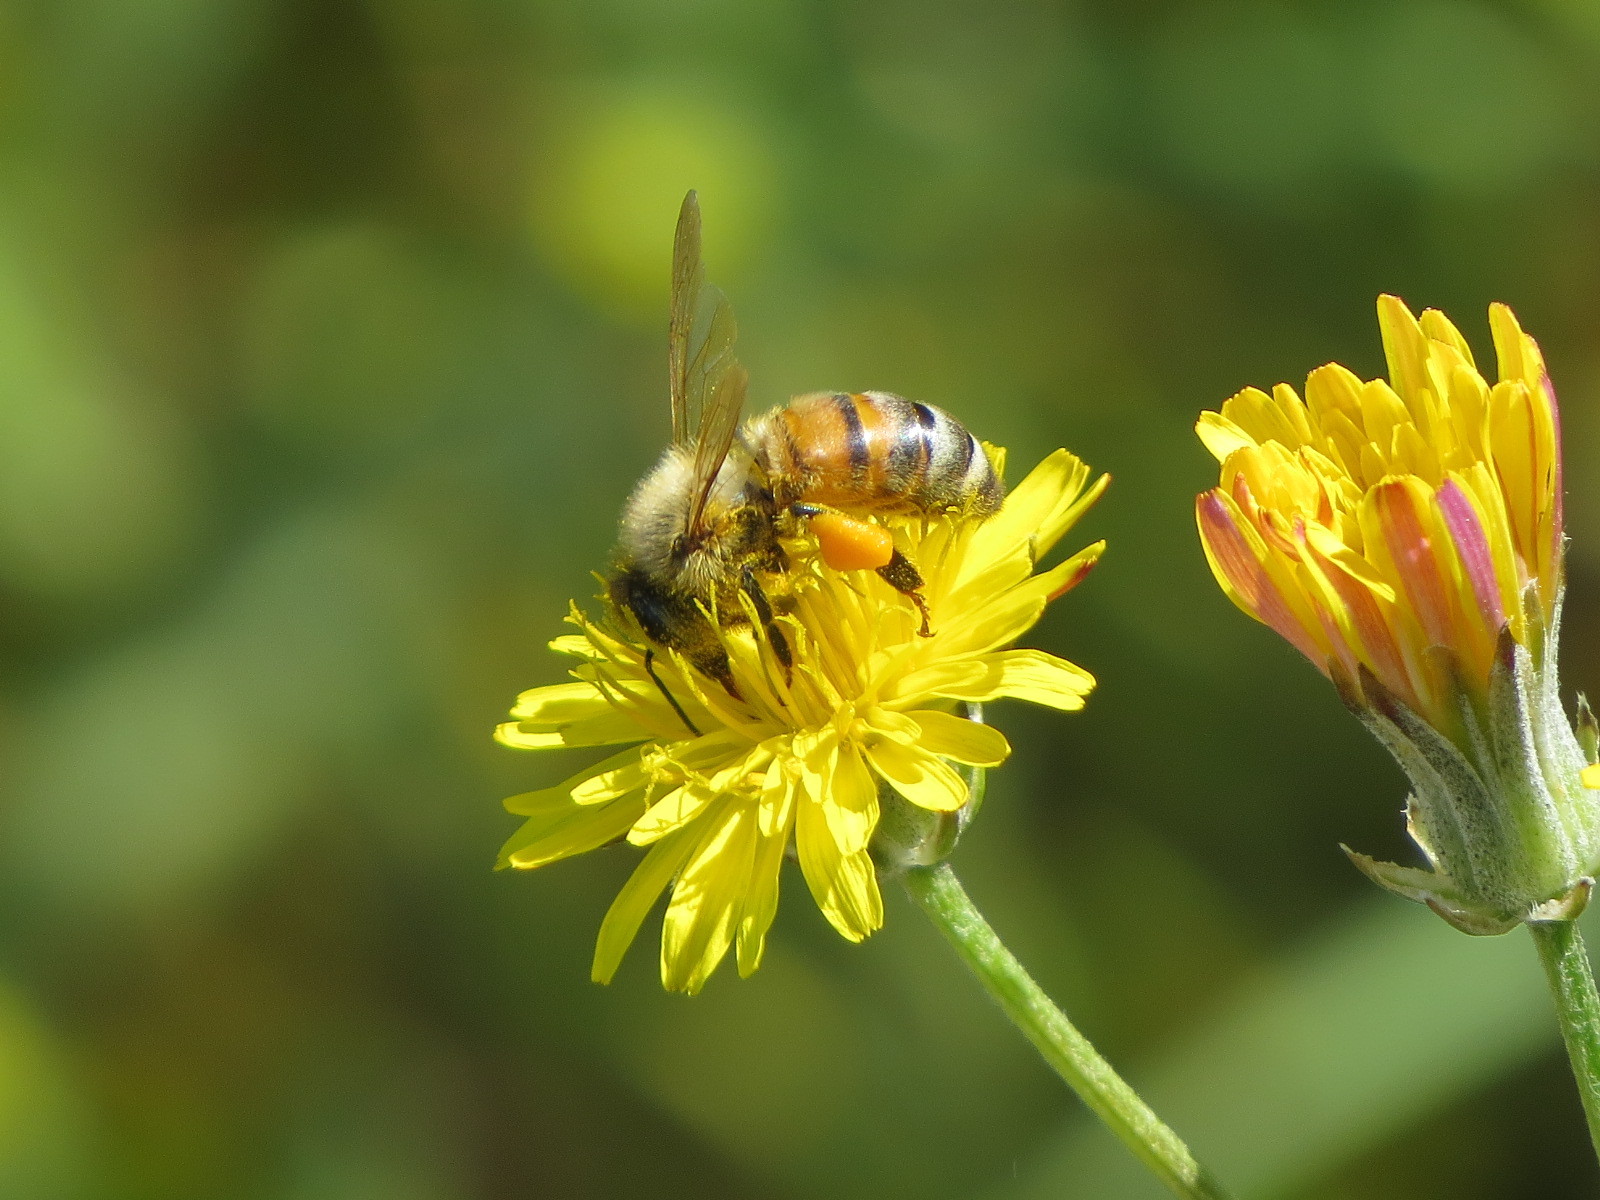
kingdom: Animalia
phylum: Arthropoda
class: Insecta
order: Hymenoptera
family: Apidae
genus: Apis
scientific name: Apis mellifera
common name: Honey bee
